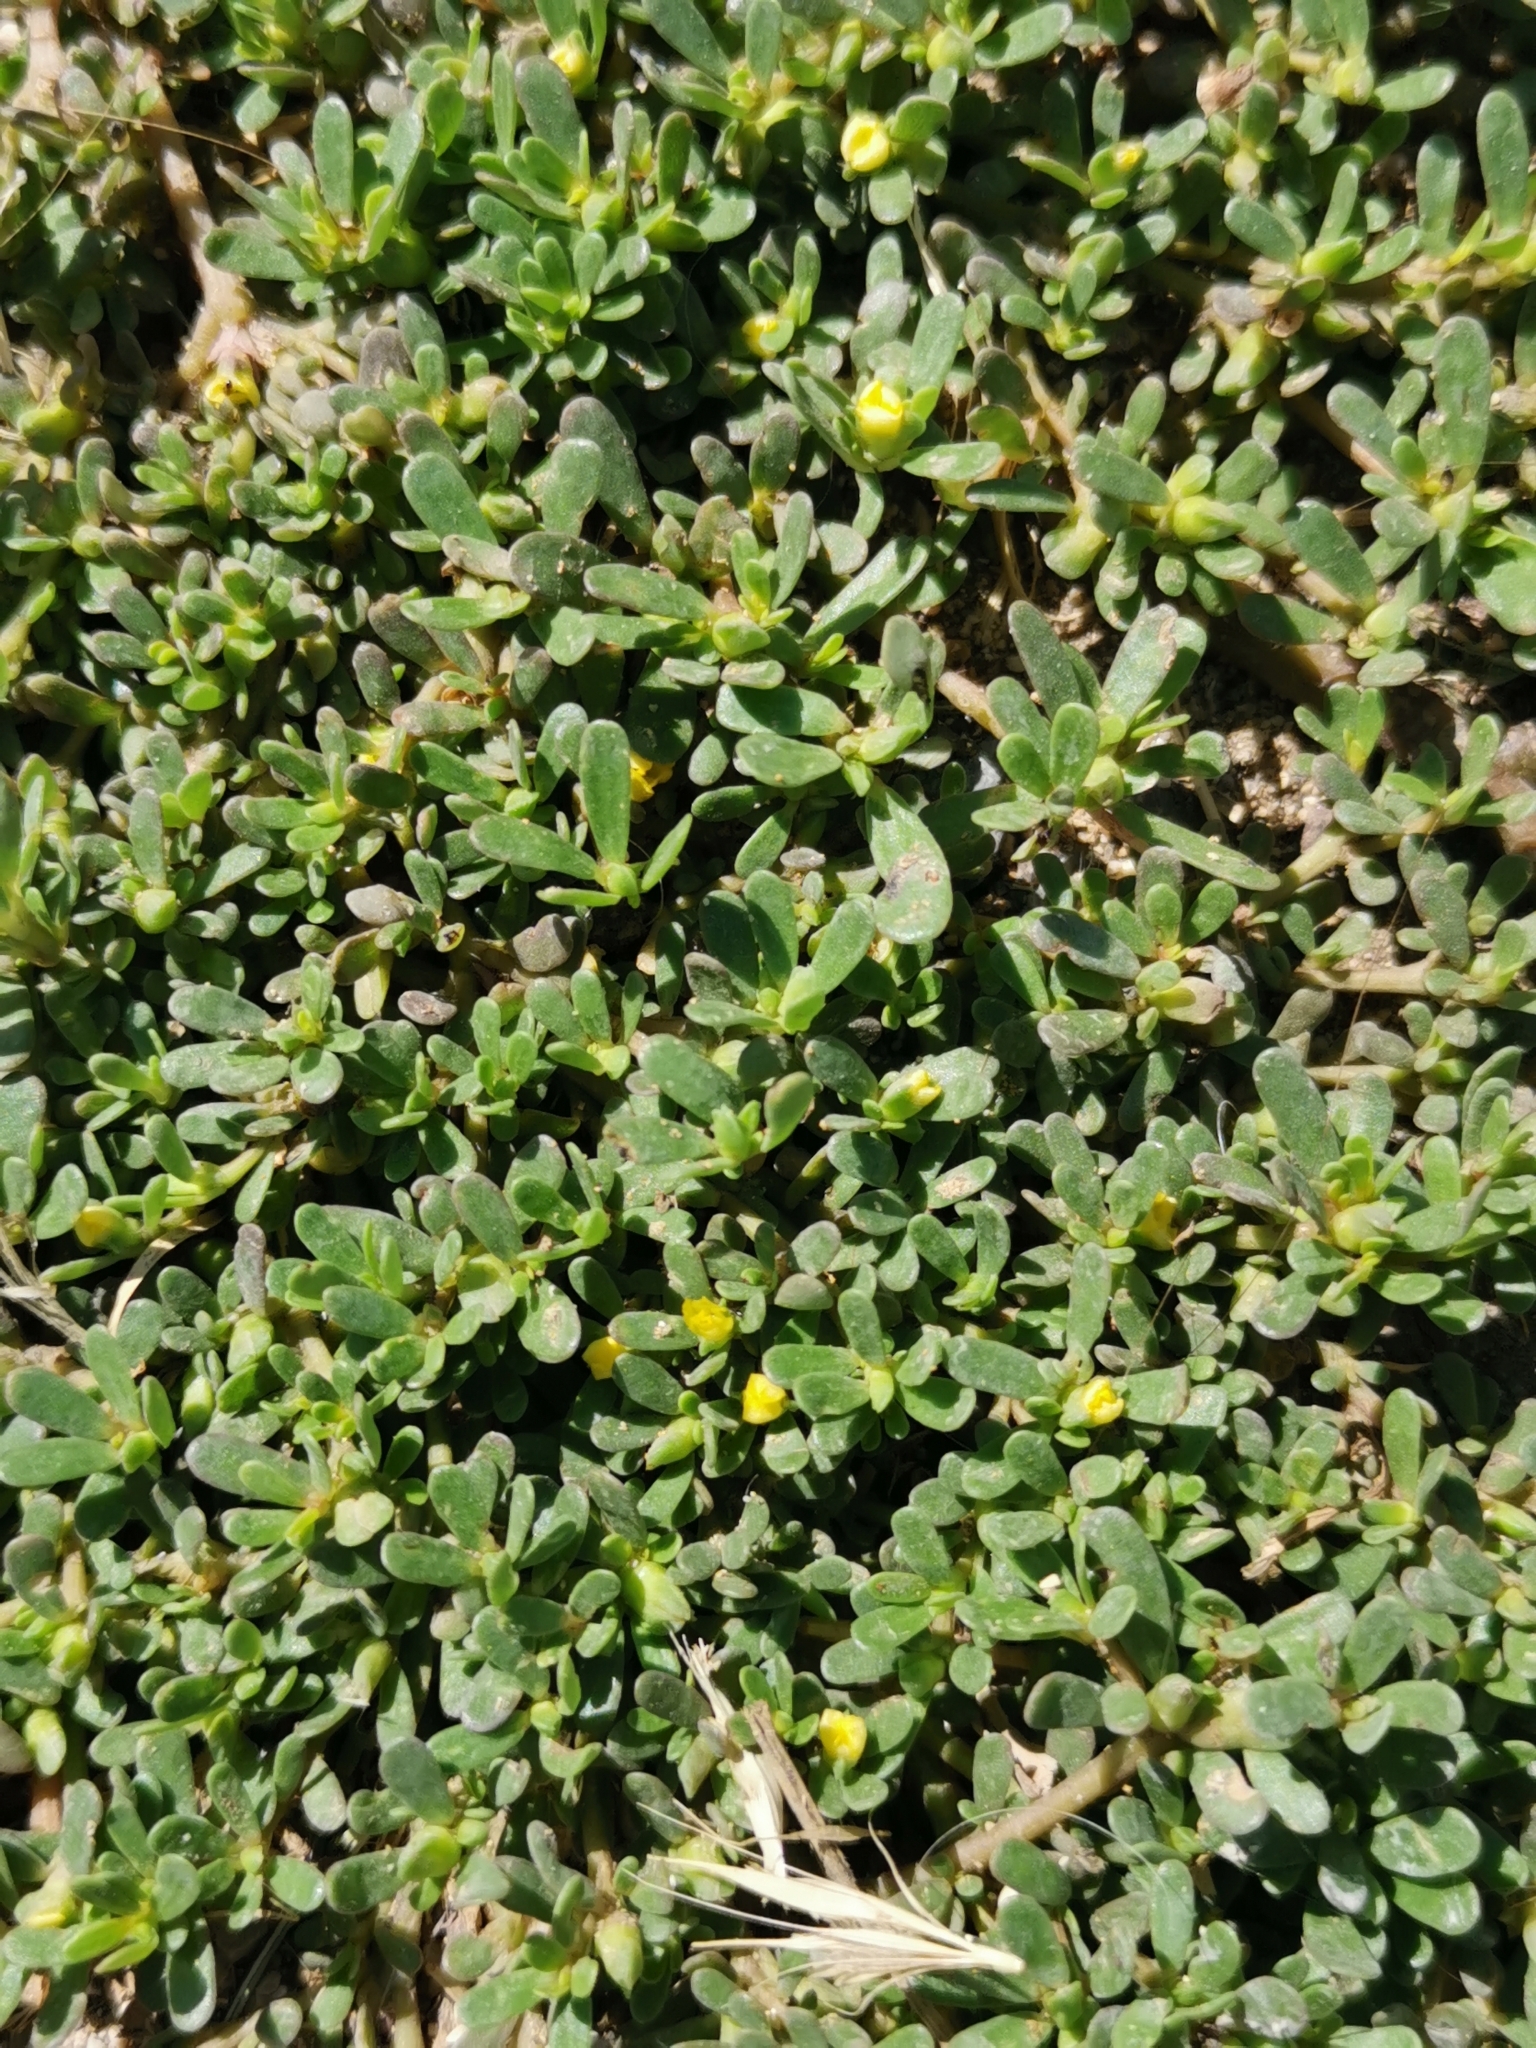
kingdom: Plantae
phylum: Tracheophyta
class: Magnoliopsida
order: Caryophyllales
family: Portulacaceae
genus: Portulaca
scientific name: Portulaca oleracea
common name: Common purslane
